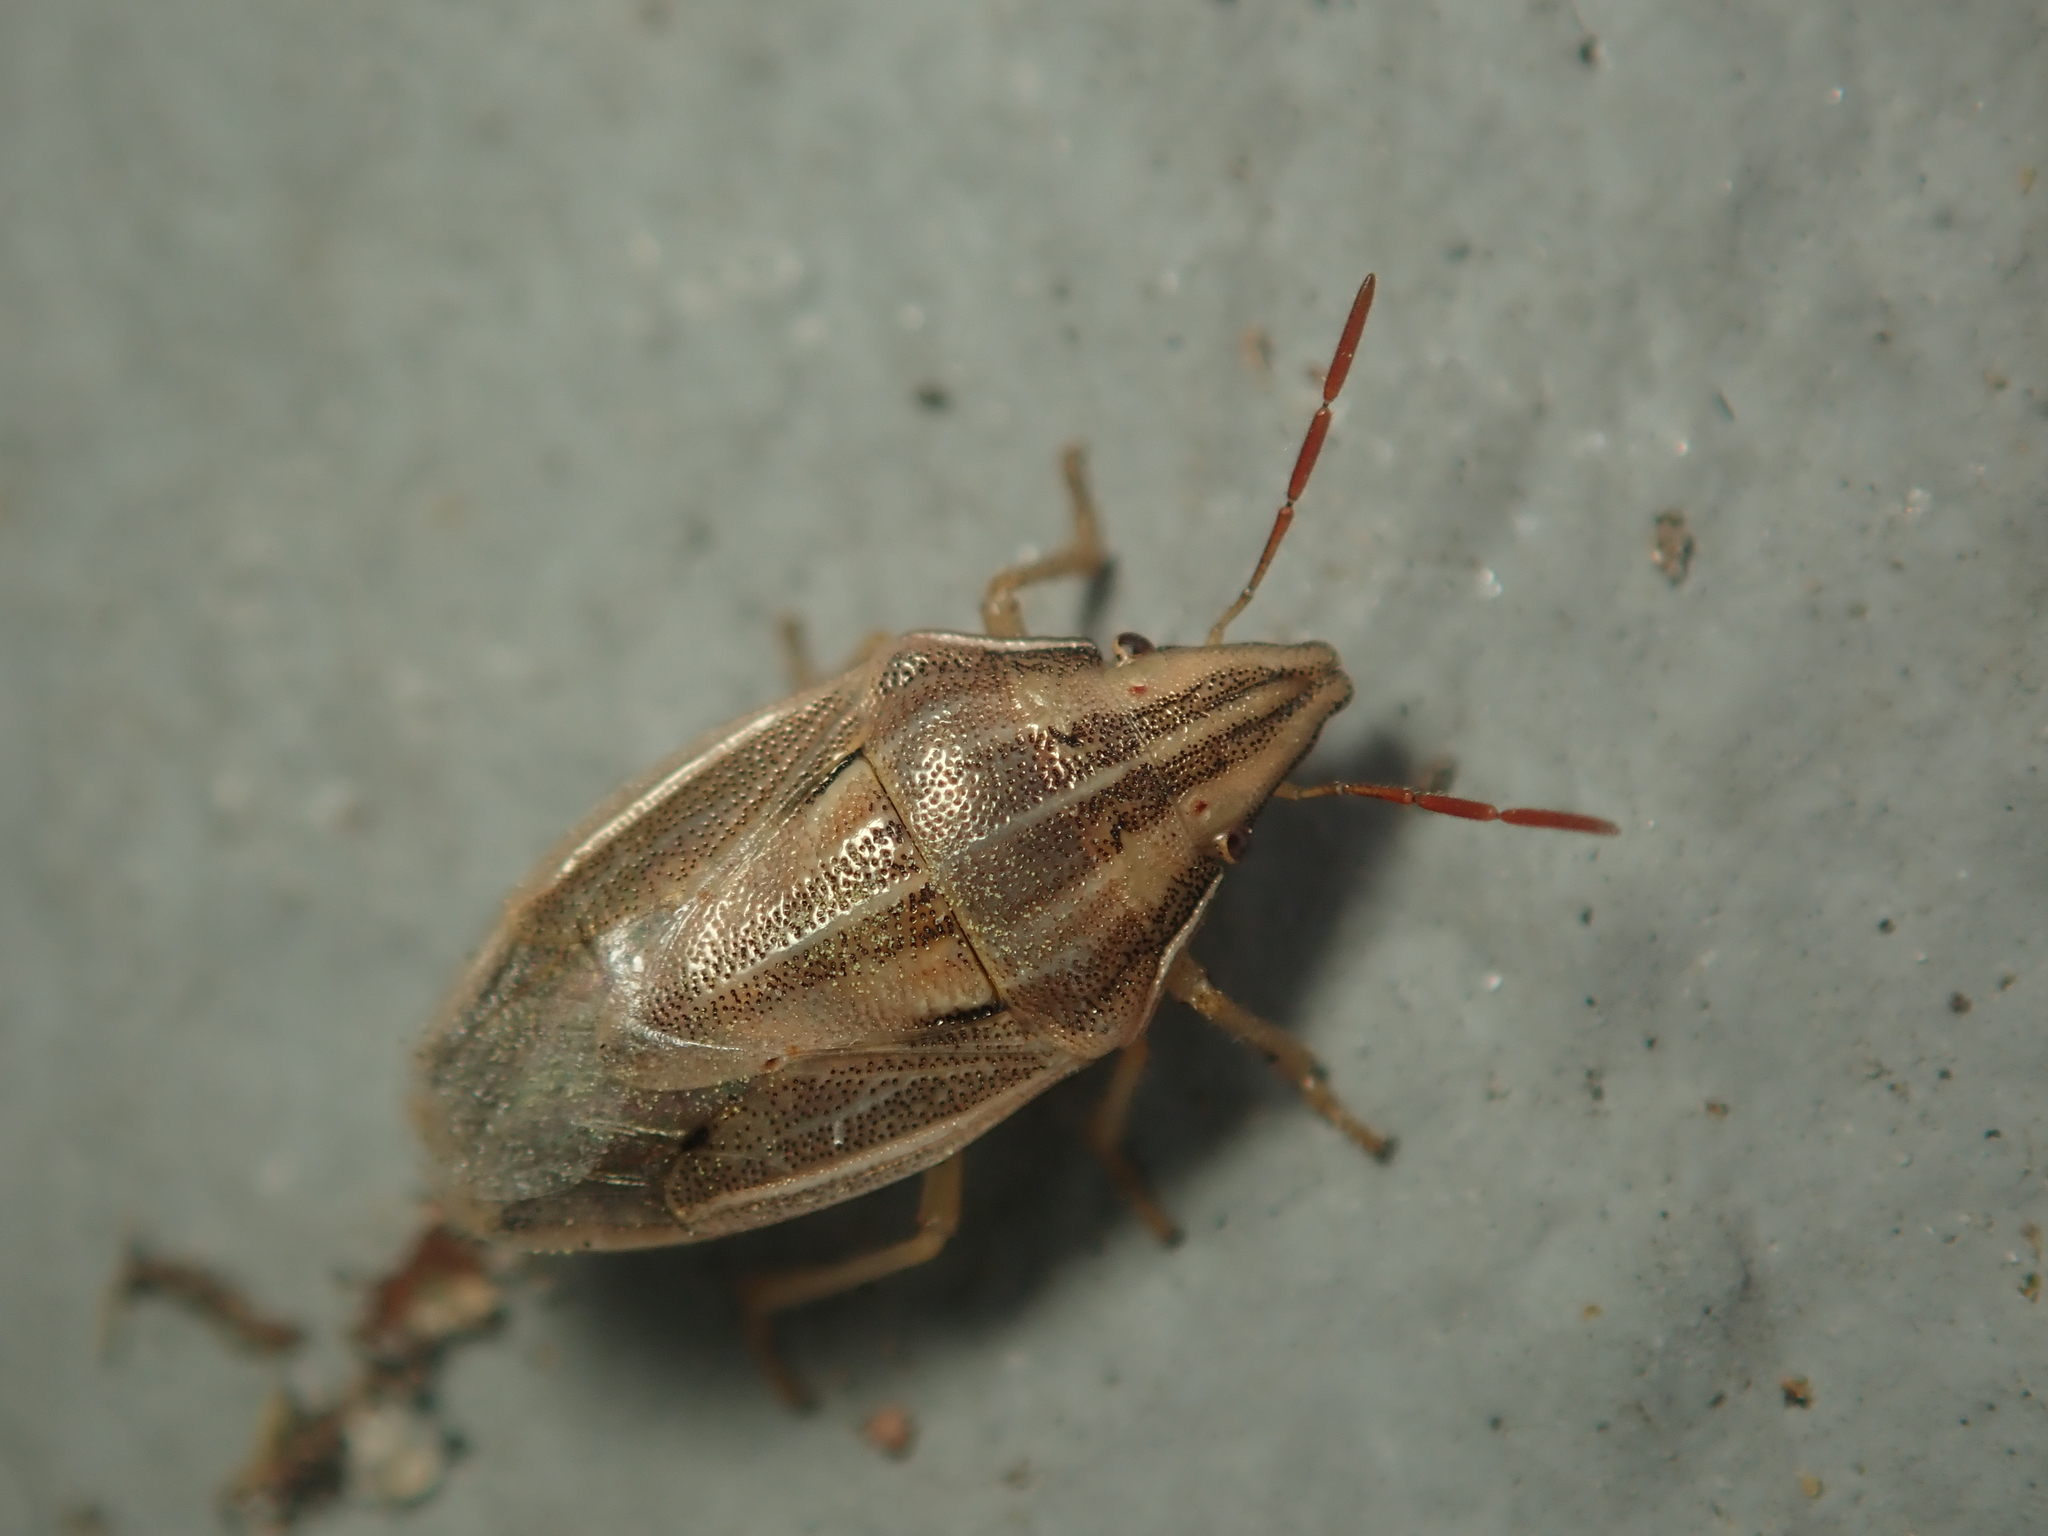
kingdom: Animalia
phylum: Arthropoda
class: Insecta
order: Hemiptera
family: Pentatomidae
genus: Aelia
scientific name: Aelia acuminata
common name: Bishop's mitre
